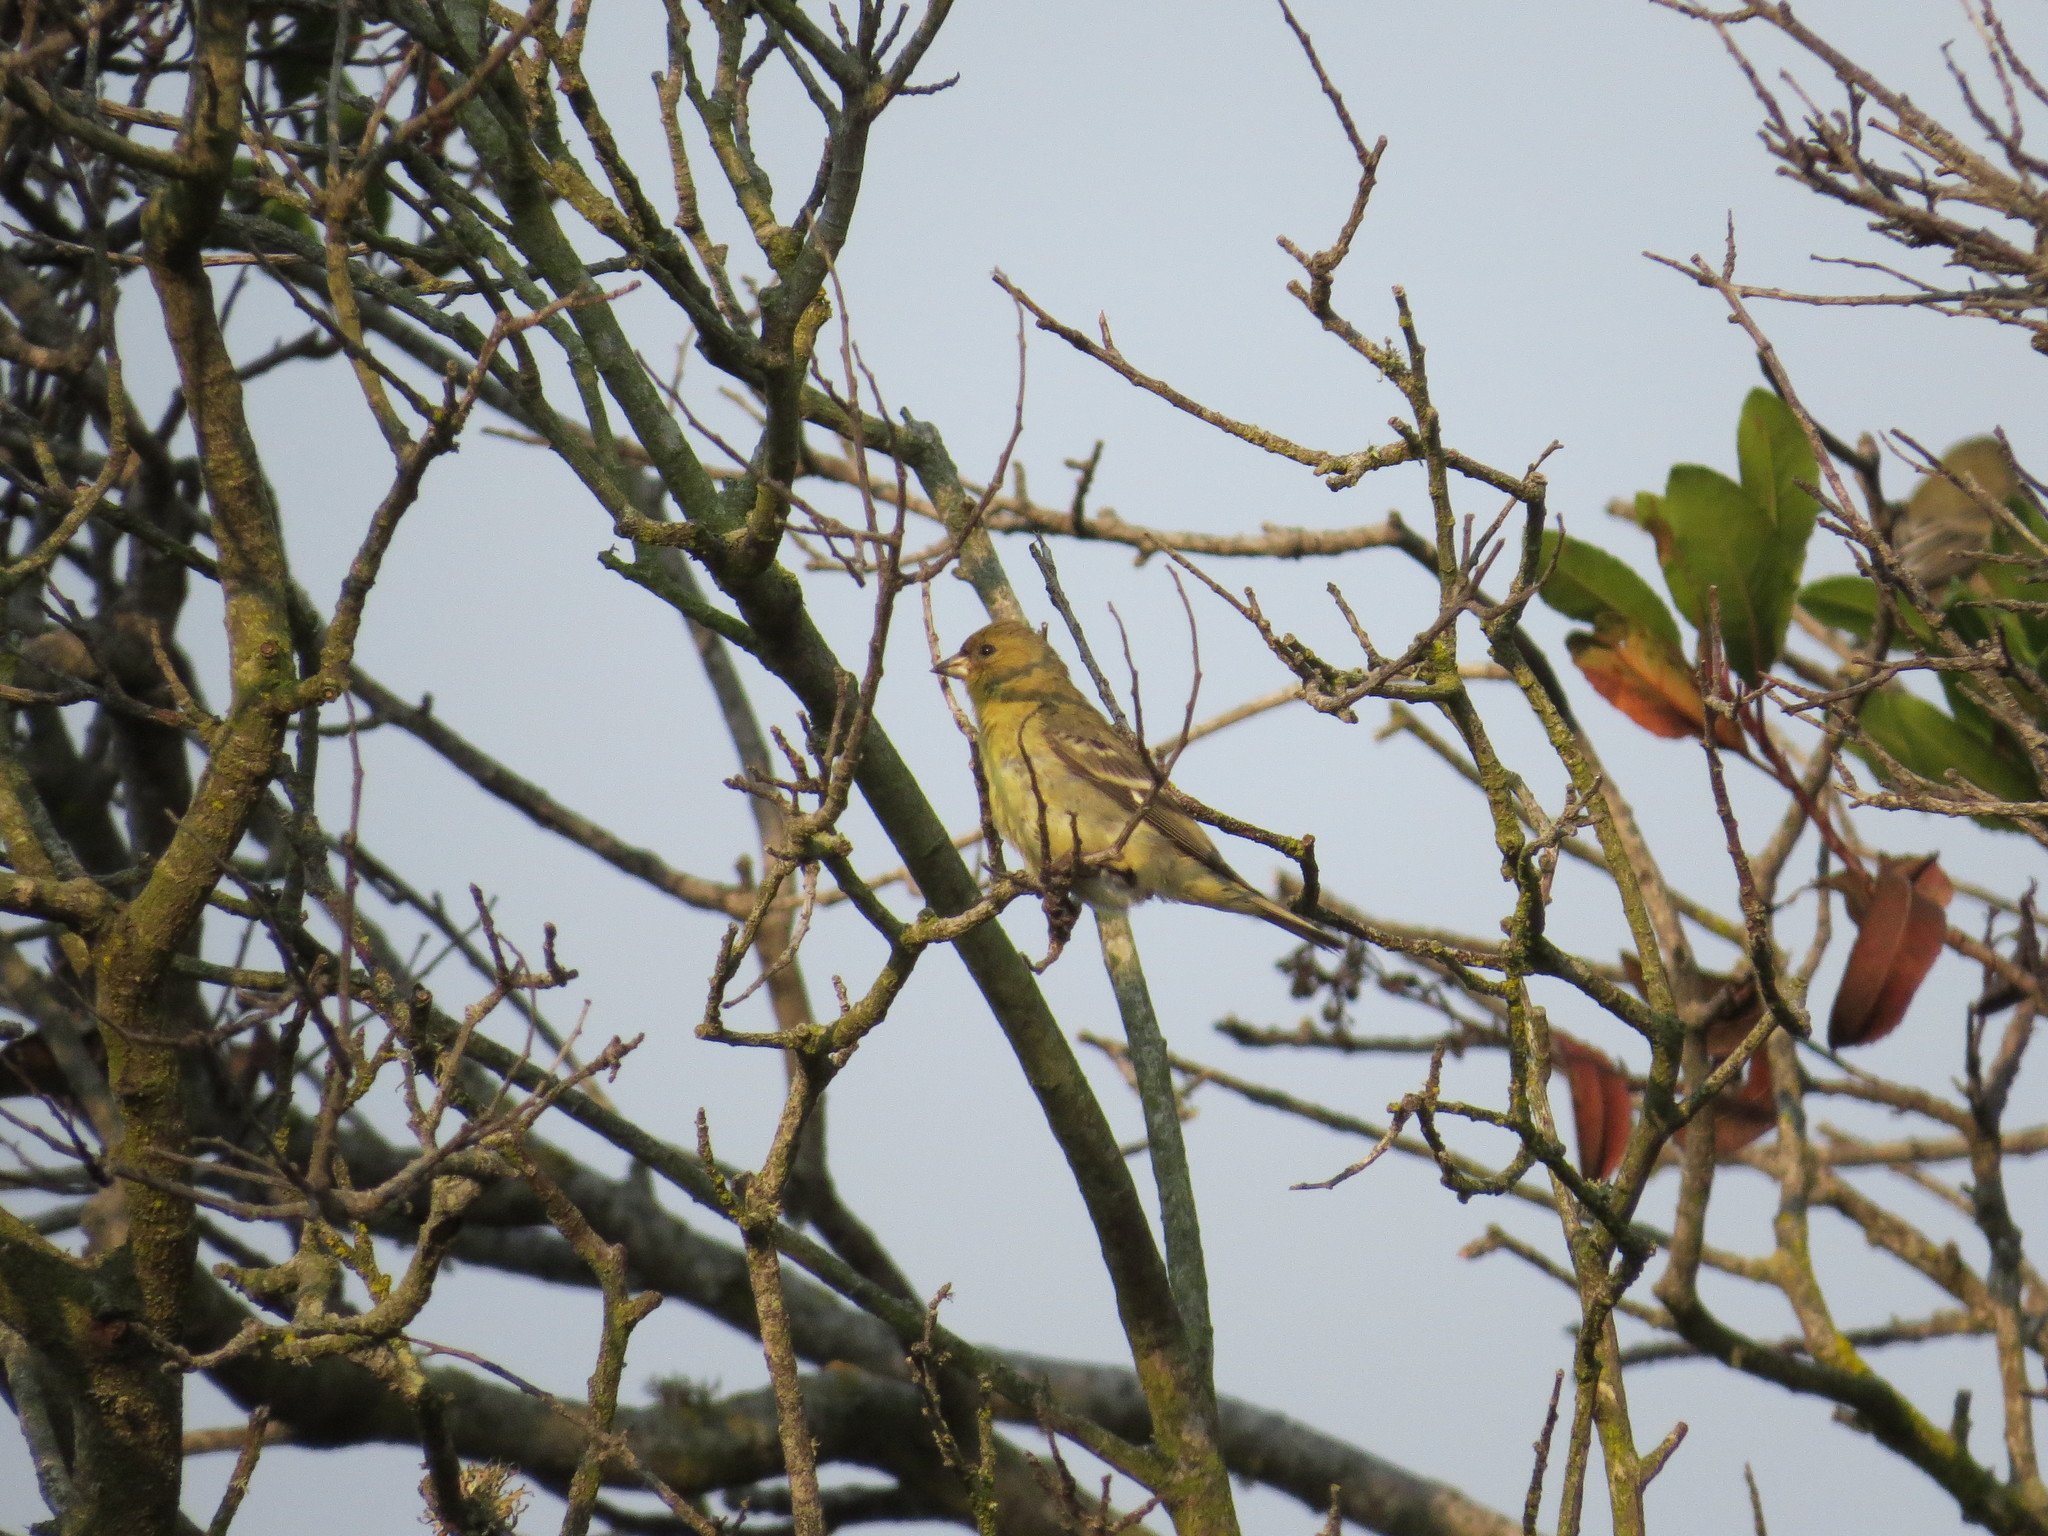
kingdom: Animalia
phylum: Chordata
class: Aves
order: Passeriformes
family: Fringillidae
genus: Spinus
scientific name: Spinus psaltria
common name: Lesser goldfinch
